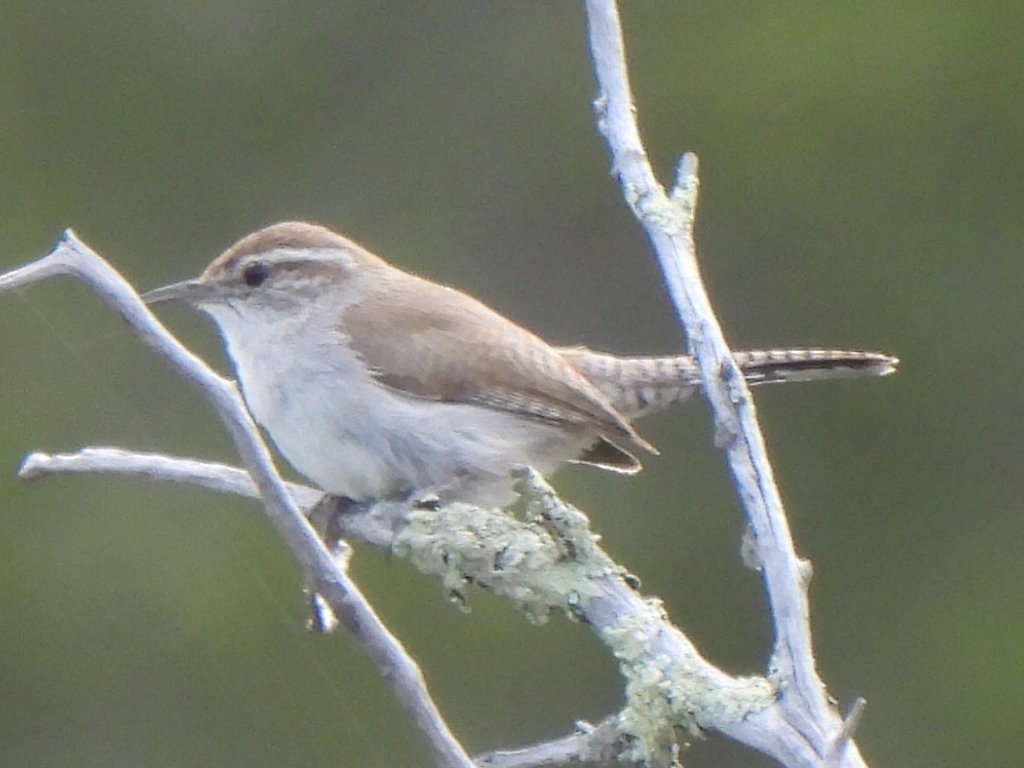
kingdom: Animalia
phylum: Chordata
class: Aves
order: Passeriformes
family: Troglodytidae
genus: Thryomanes
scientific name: Thryomanes bewickii
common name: Bewick's wren
